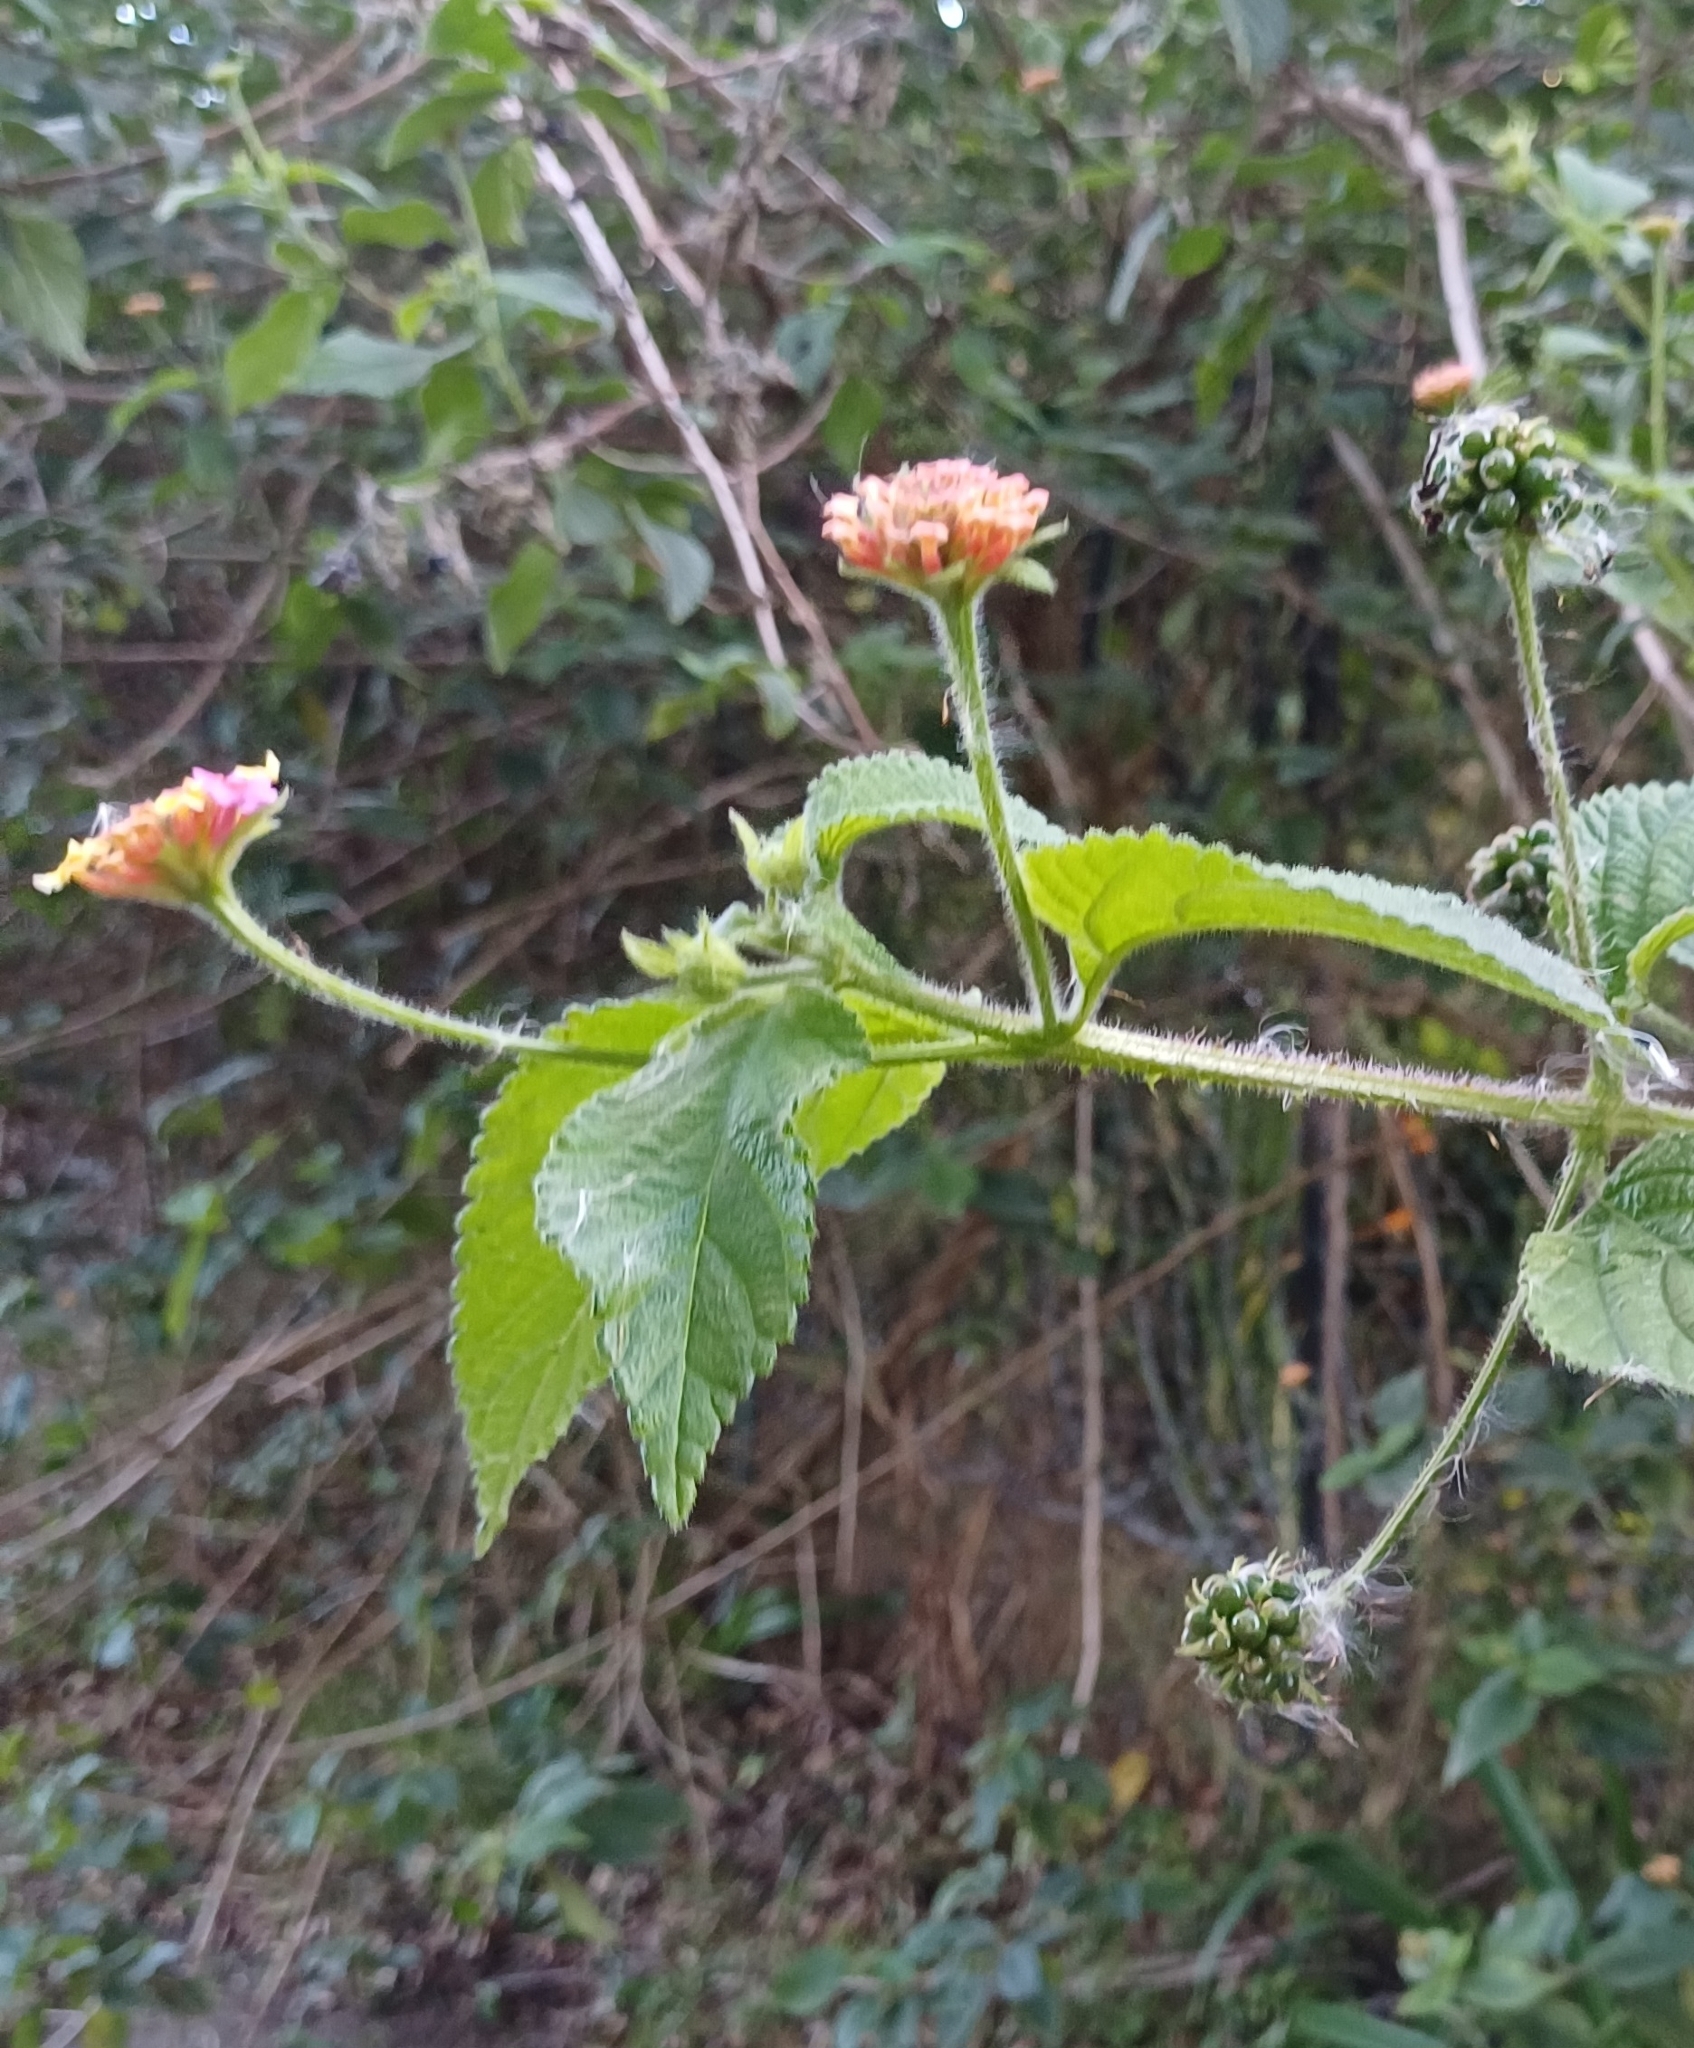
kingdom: Plantae
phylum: Tracheophyta
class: Magnoliopsida
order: Lamiales
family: Verbenaceae
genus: Lantana
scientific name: Lantana camara
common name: Lantana
